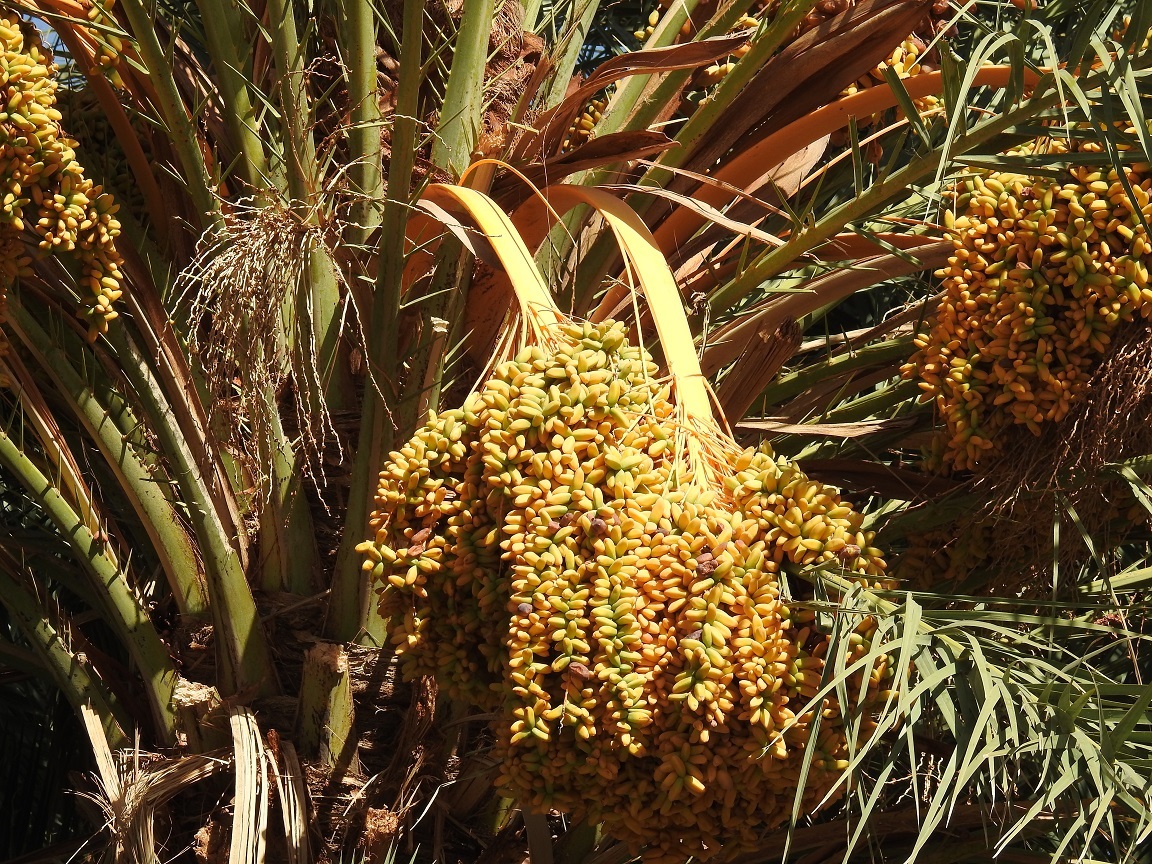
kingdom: Plantae
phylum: Tracheophyta
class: Liliopsida
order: Arecales
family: Arecaceae
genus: Phoenix
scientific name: Phoenix dactylifera
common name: Date palm
